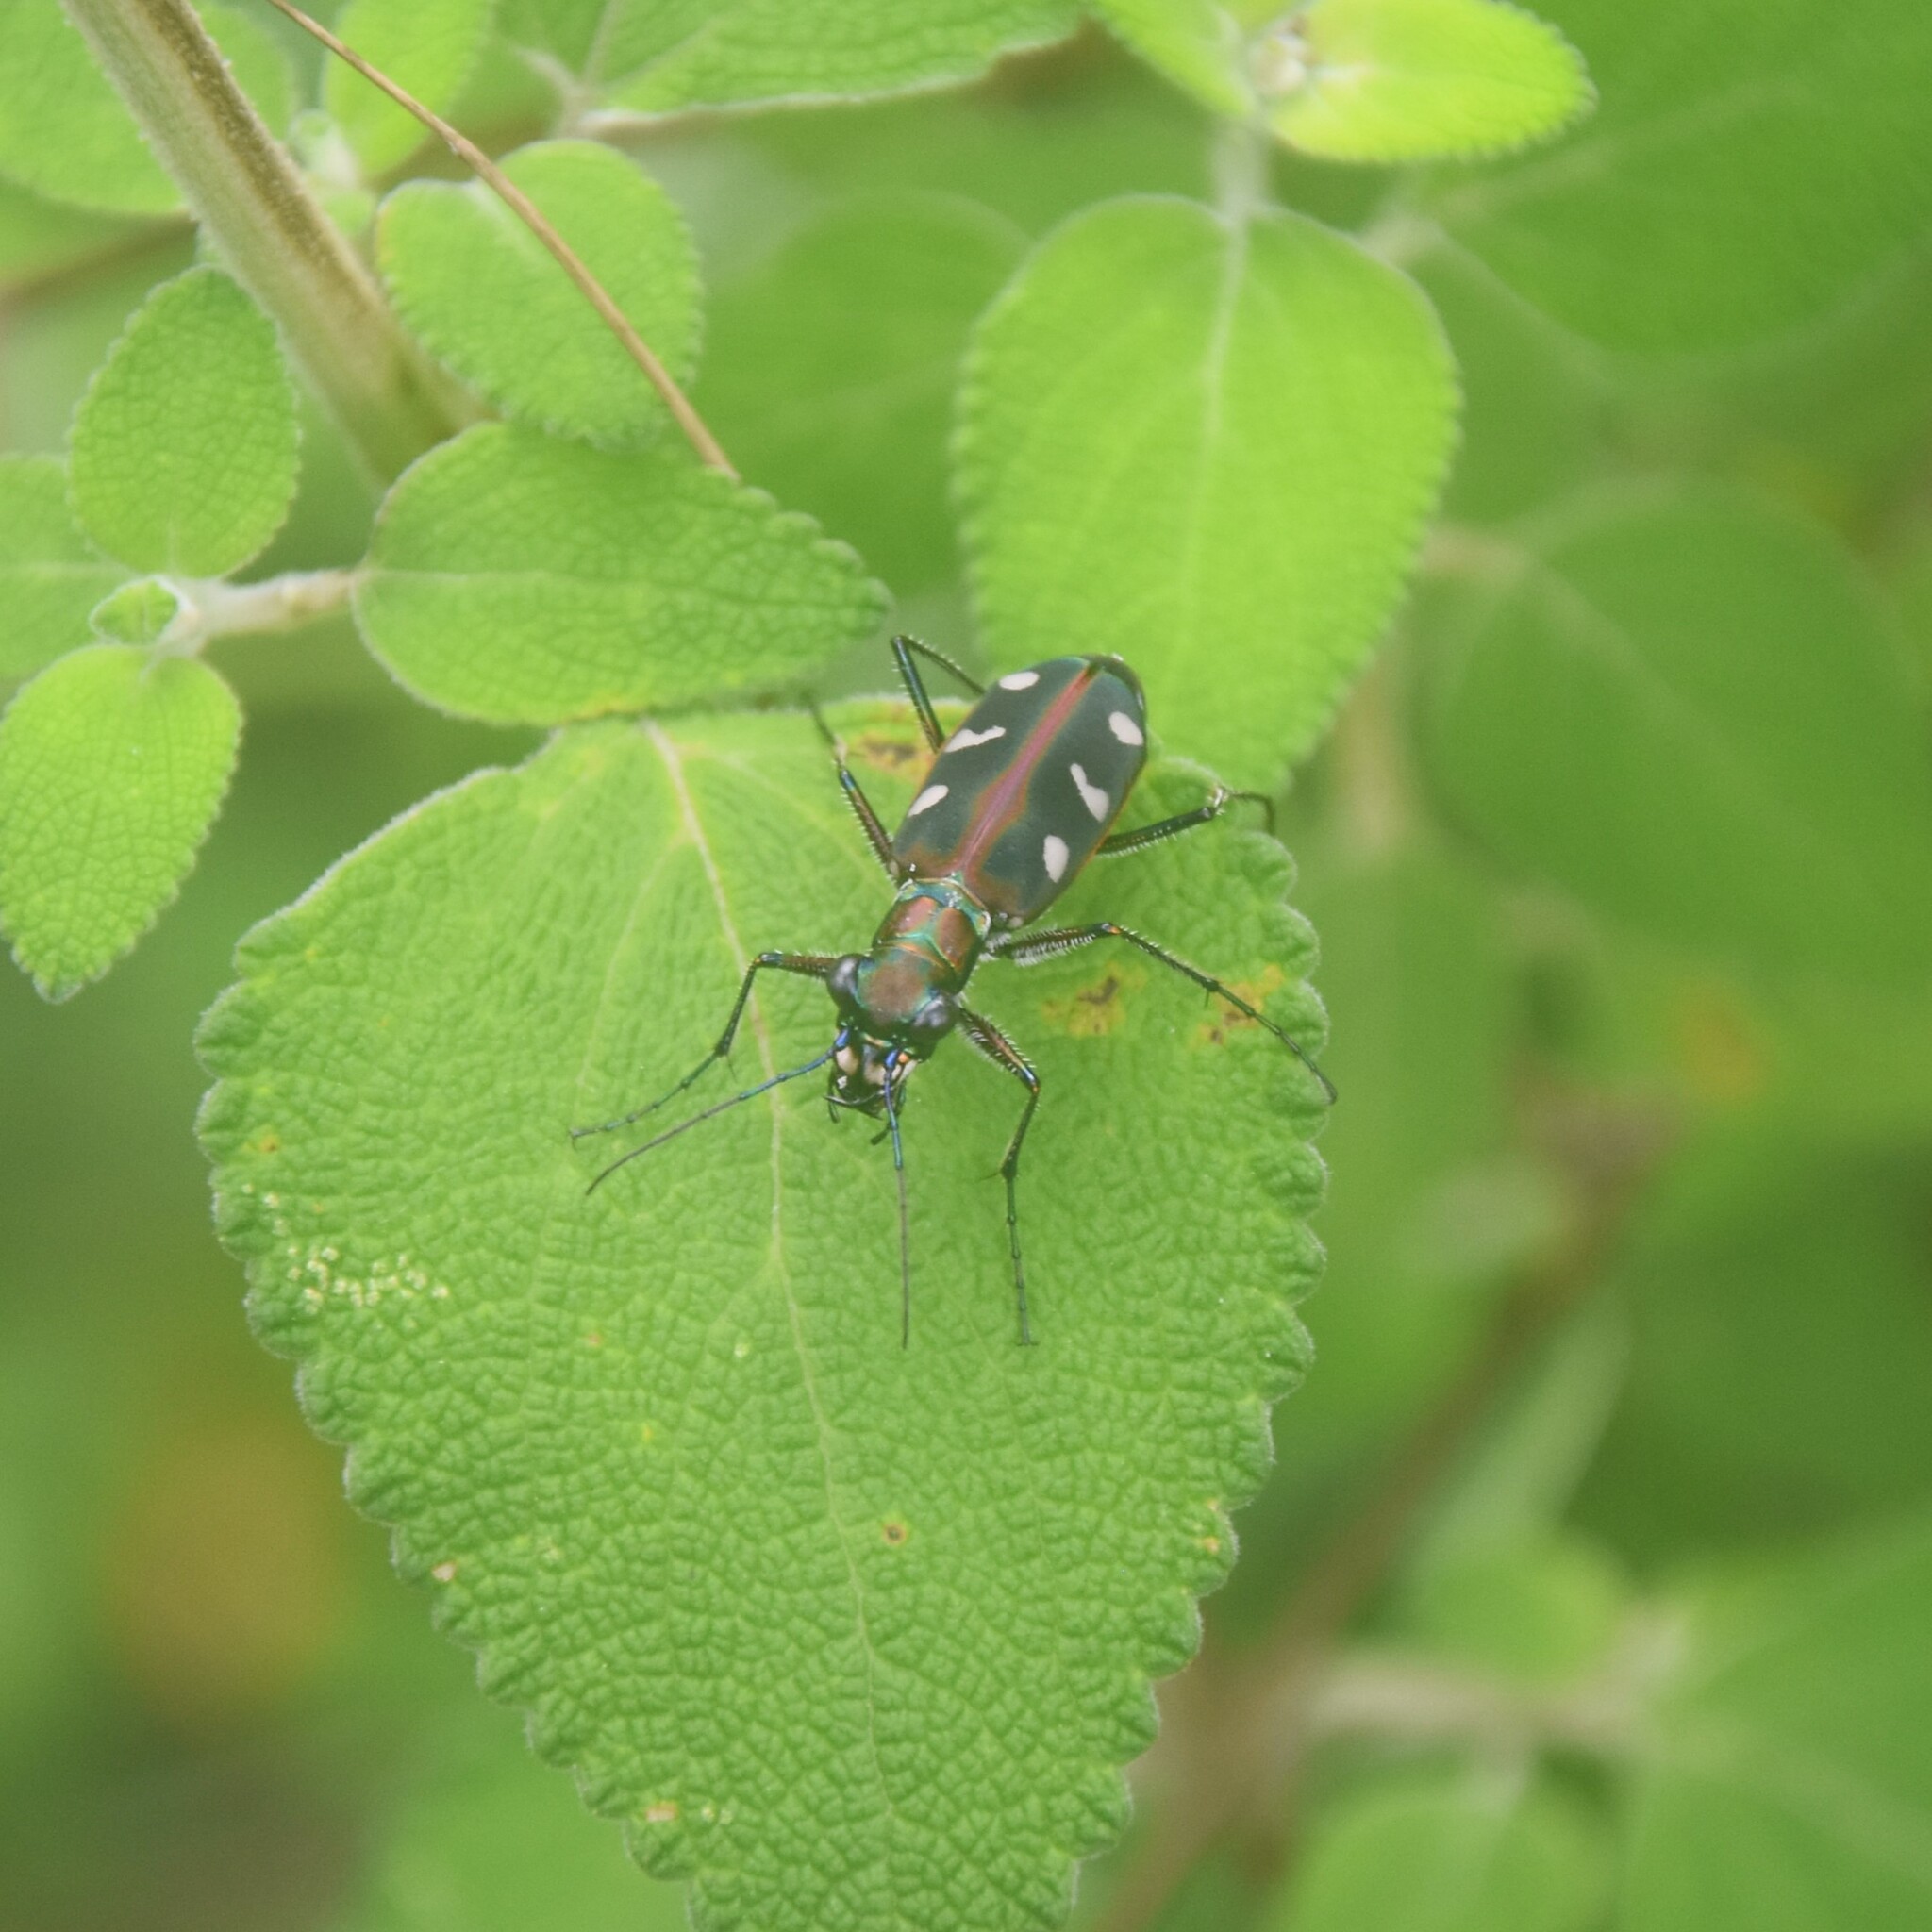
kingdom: Animalia
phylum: Arthropoda
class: Insecta
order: Coleoptera
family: Carabidae
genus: Cicindela
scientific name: Cicindela virgula
